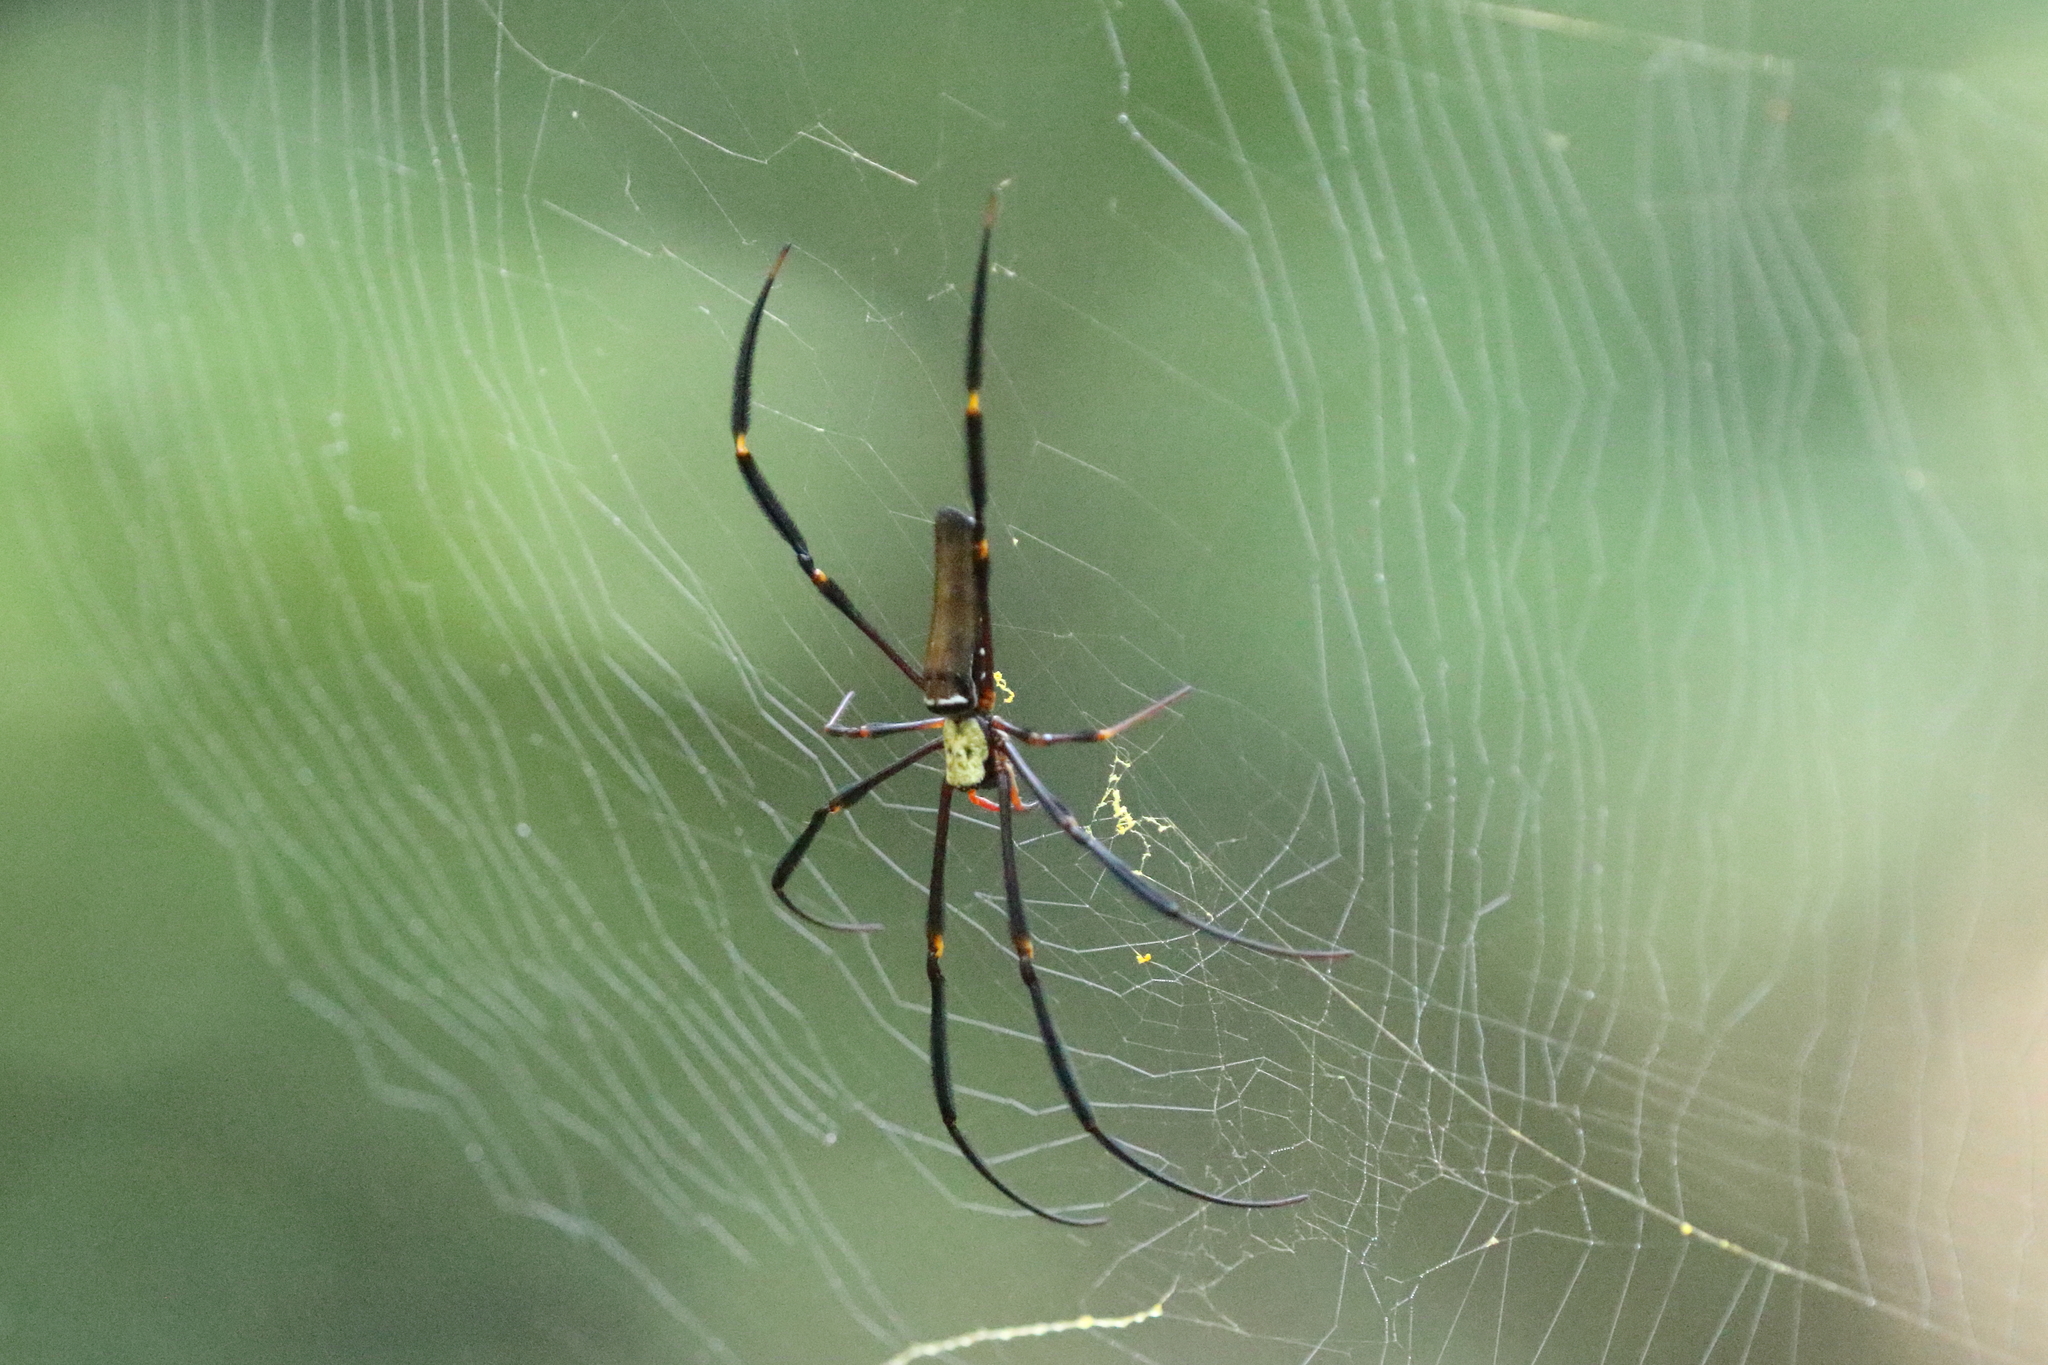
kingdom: Animalia
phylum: Arthropoda
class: Arachnida
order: Araneae
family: Araneidae
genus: Nephila
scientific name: Nephila pilipes
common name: Giant golden orb weaver
